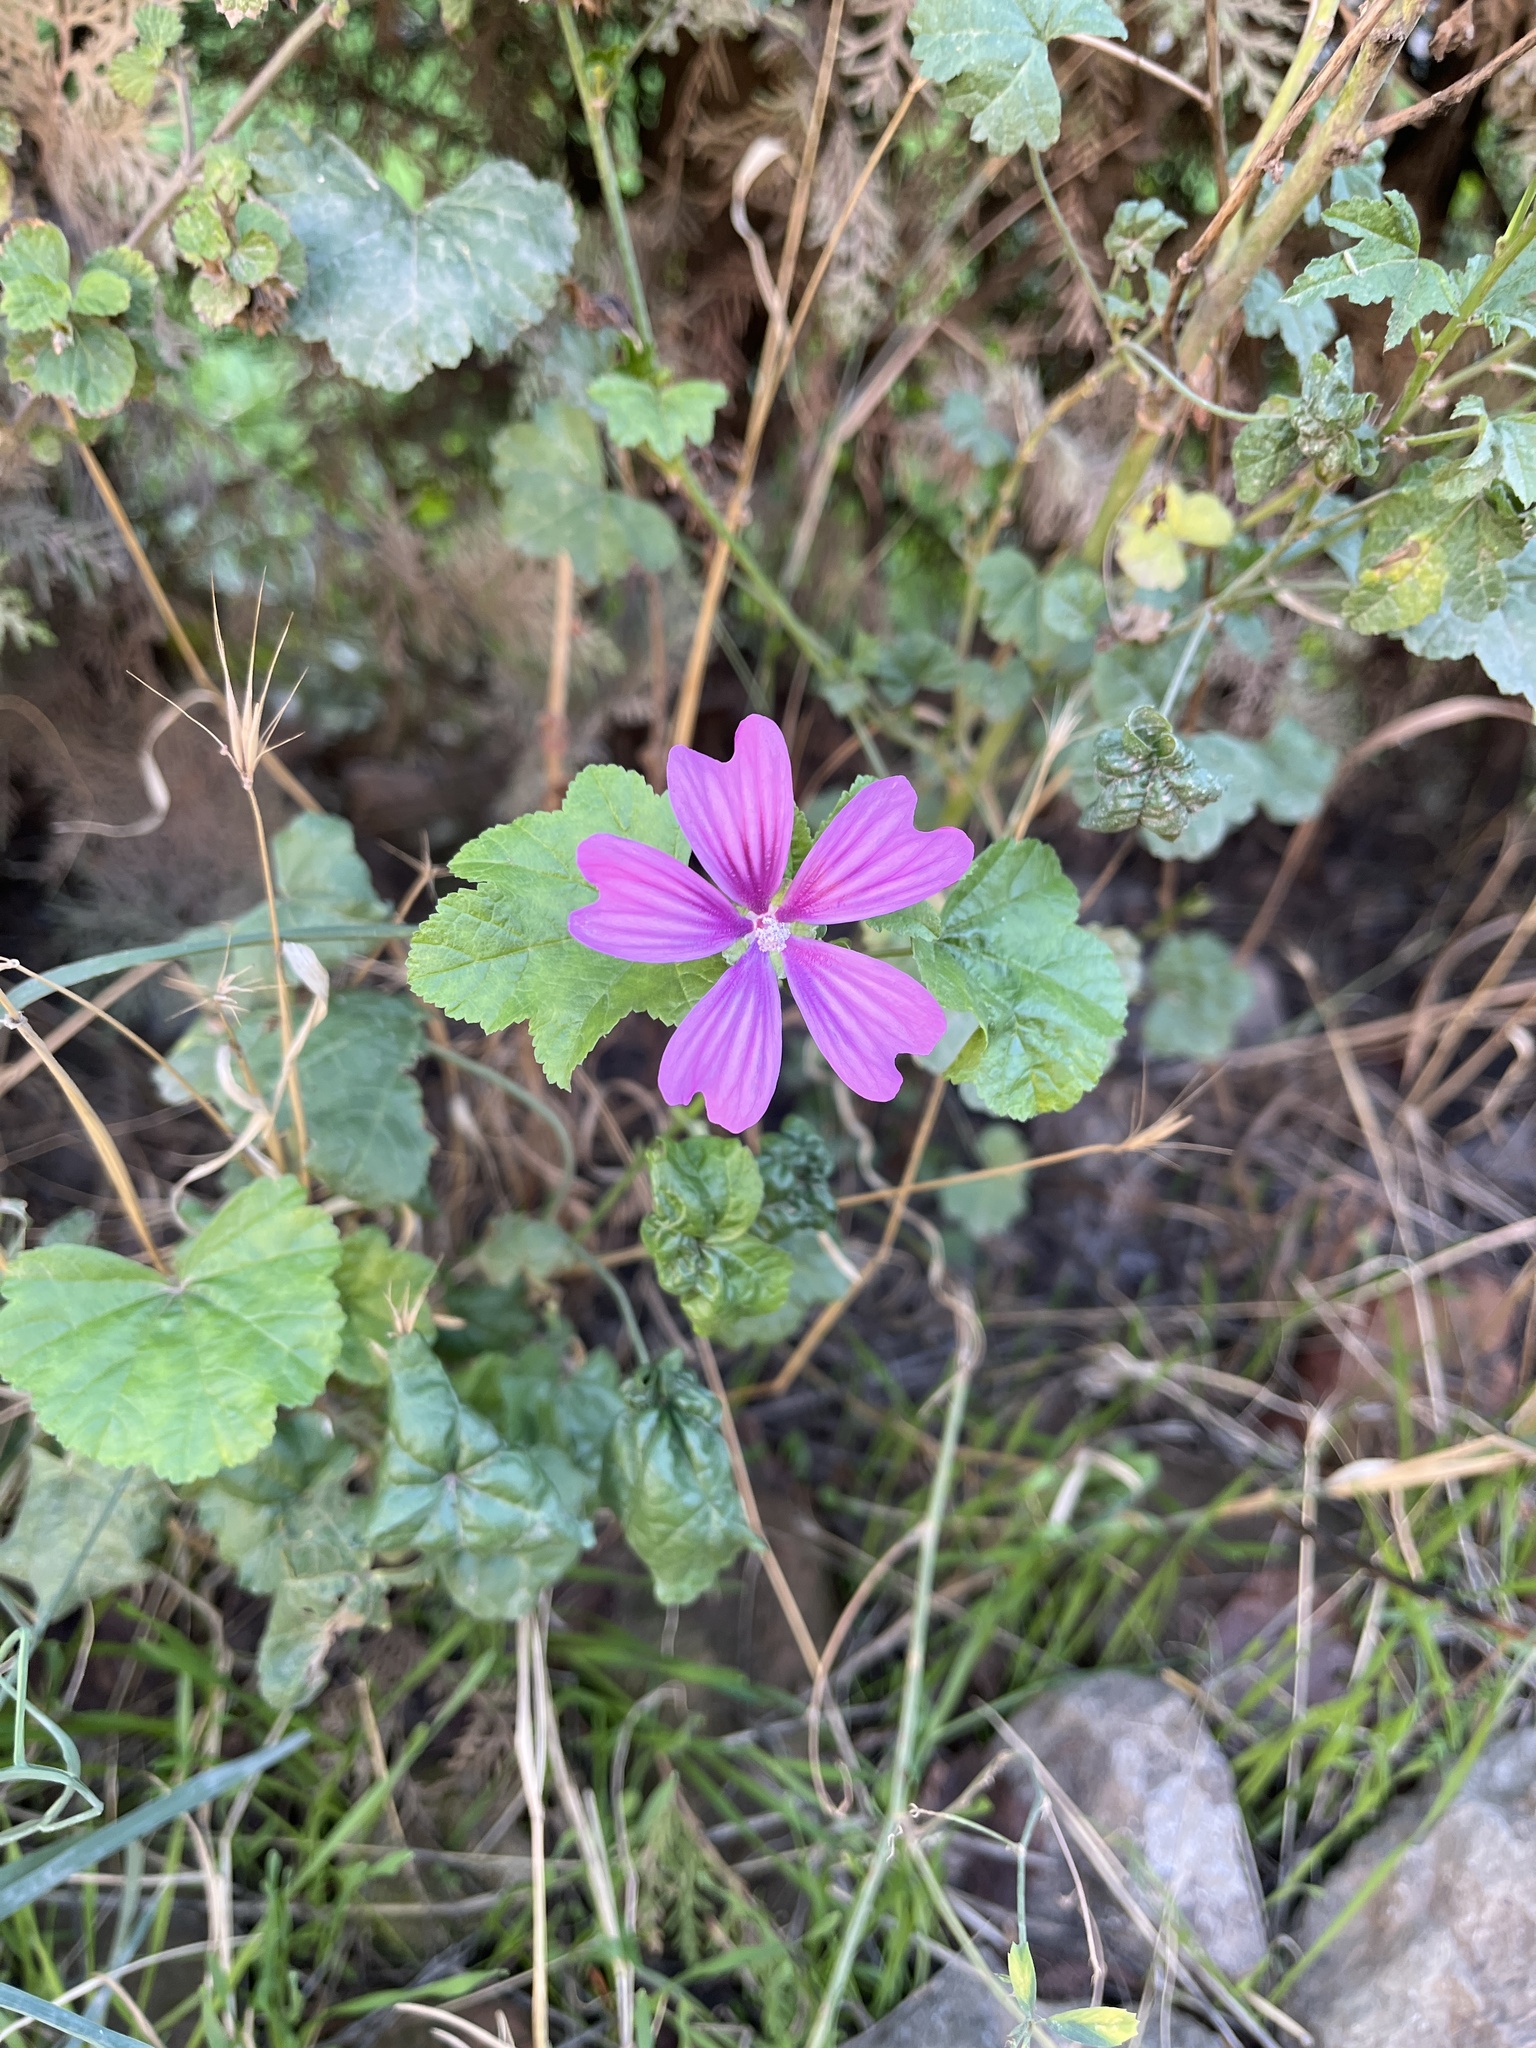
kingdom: Plantae
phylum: Tracheophyta
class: Magnoliopsida
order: Malvales
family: Malvaceae
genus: Malva
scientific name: Malva sylvestris
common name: Common mallow
